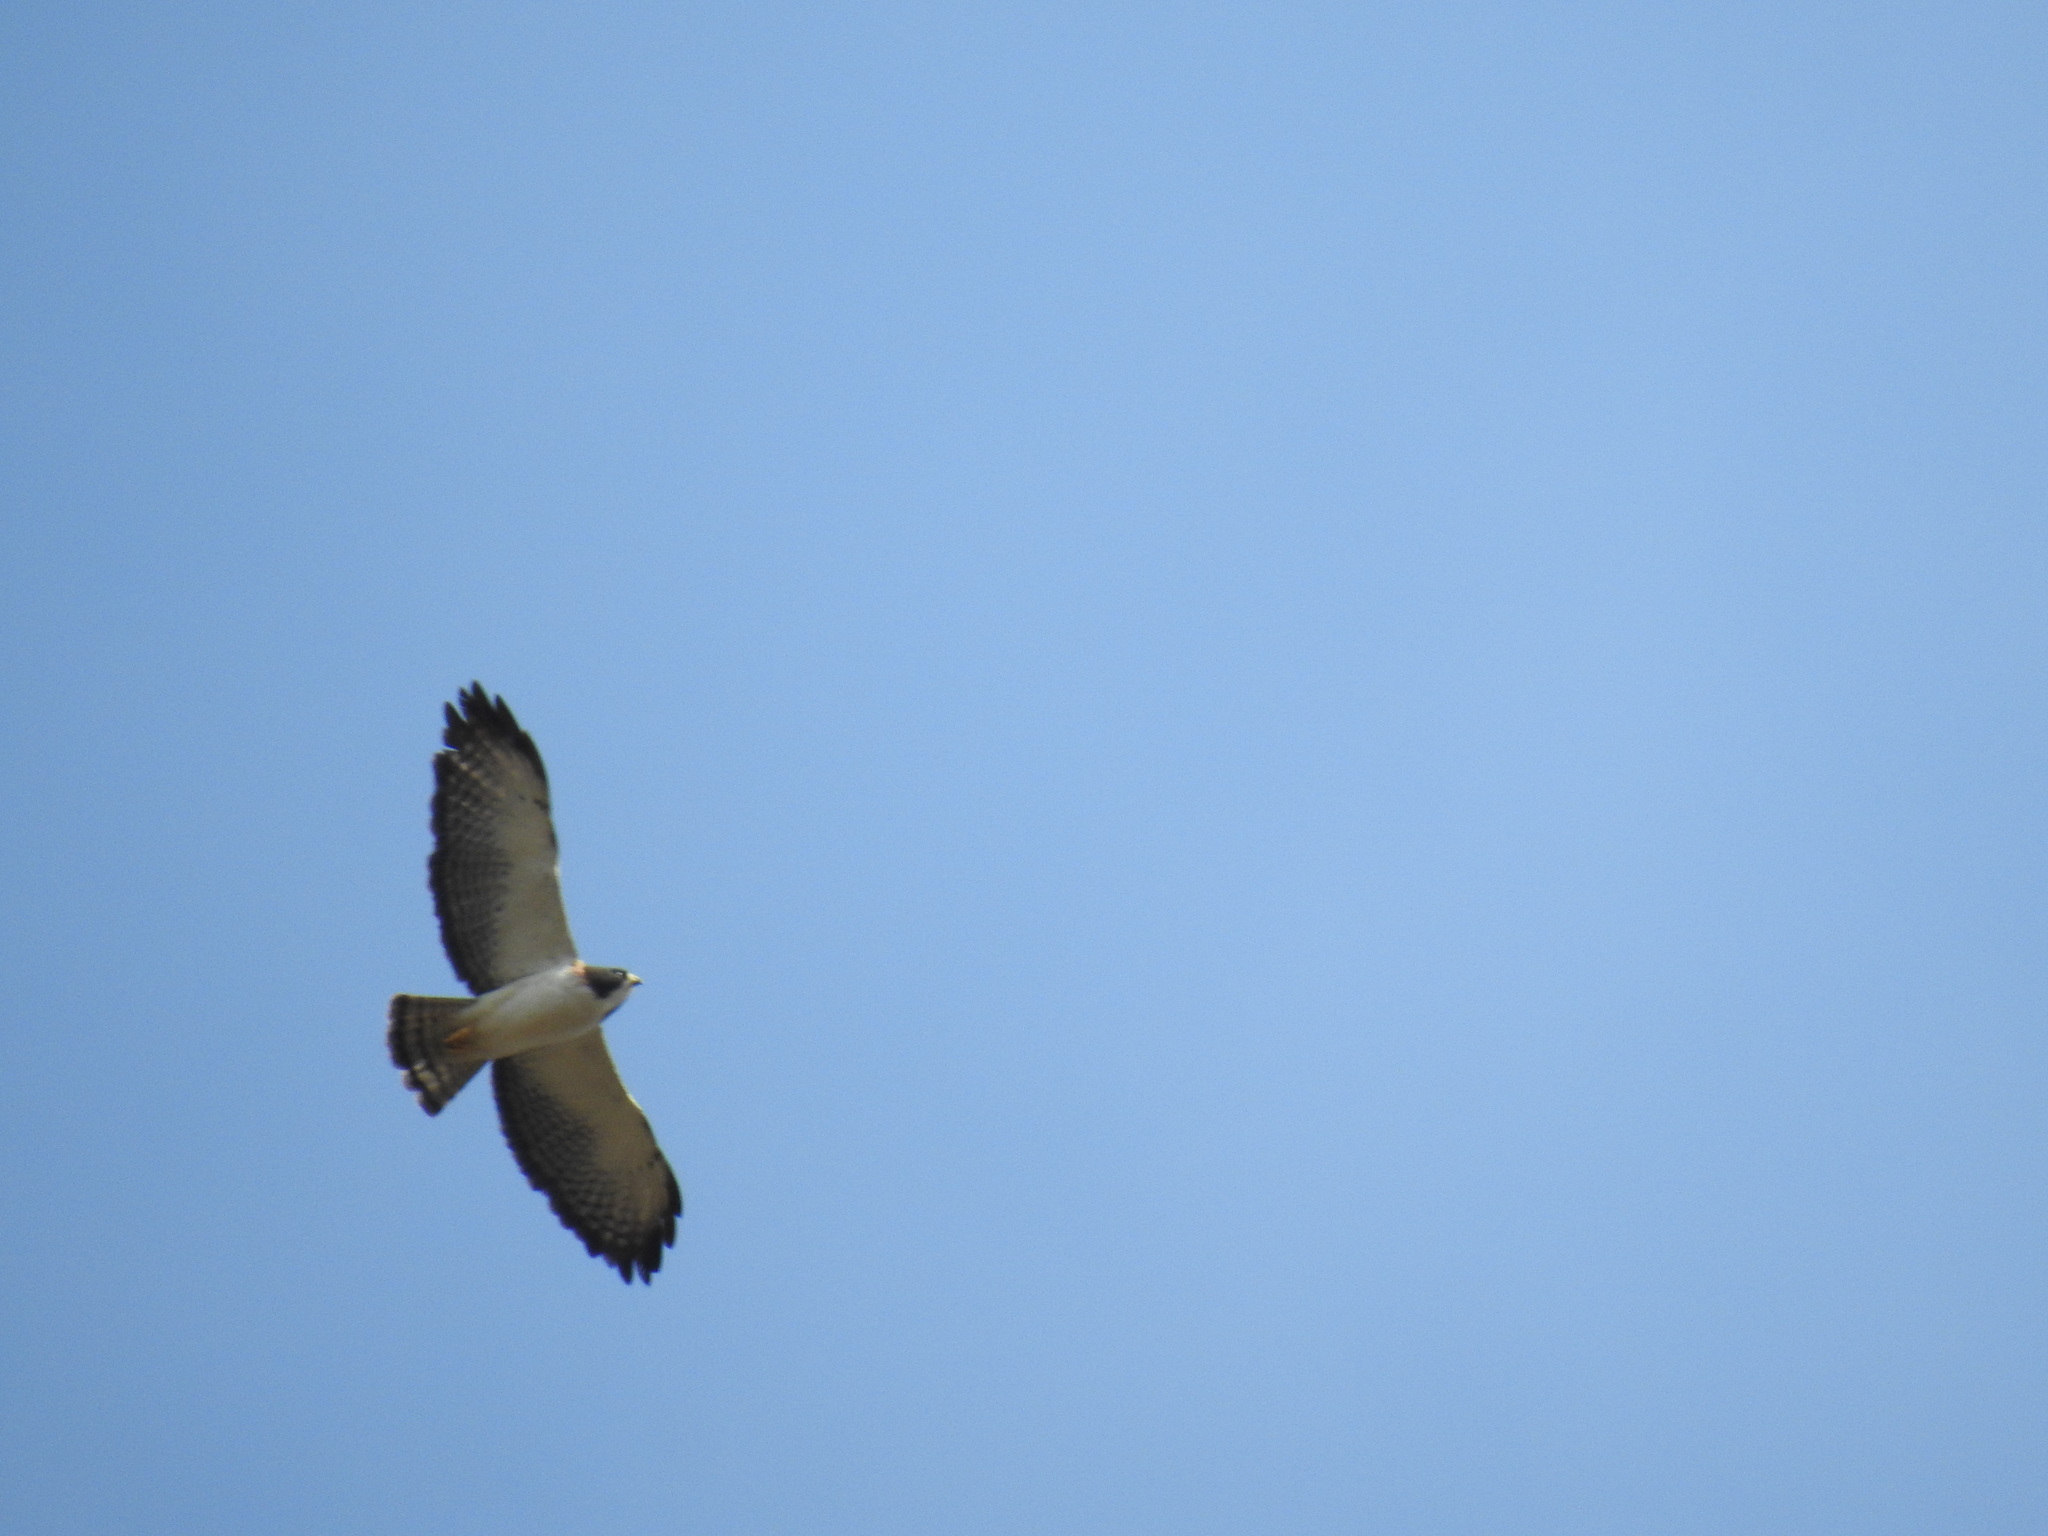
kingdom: Animalia
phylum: Chordata
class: Aves
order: Accipitriformes
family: Accipitridae
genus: Buteo
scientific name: Buteo brachyurus
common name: Short-tailed hawk
